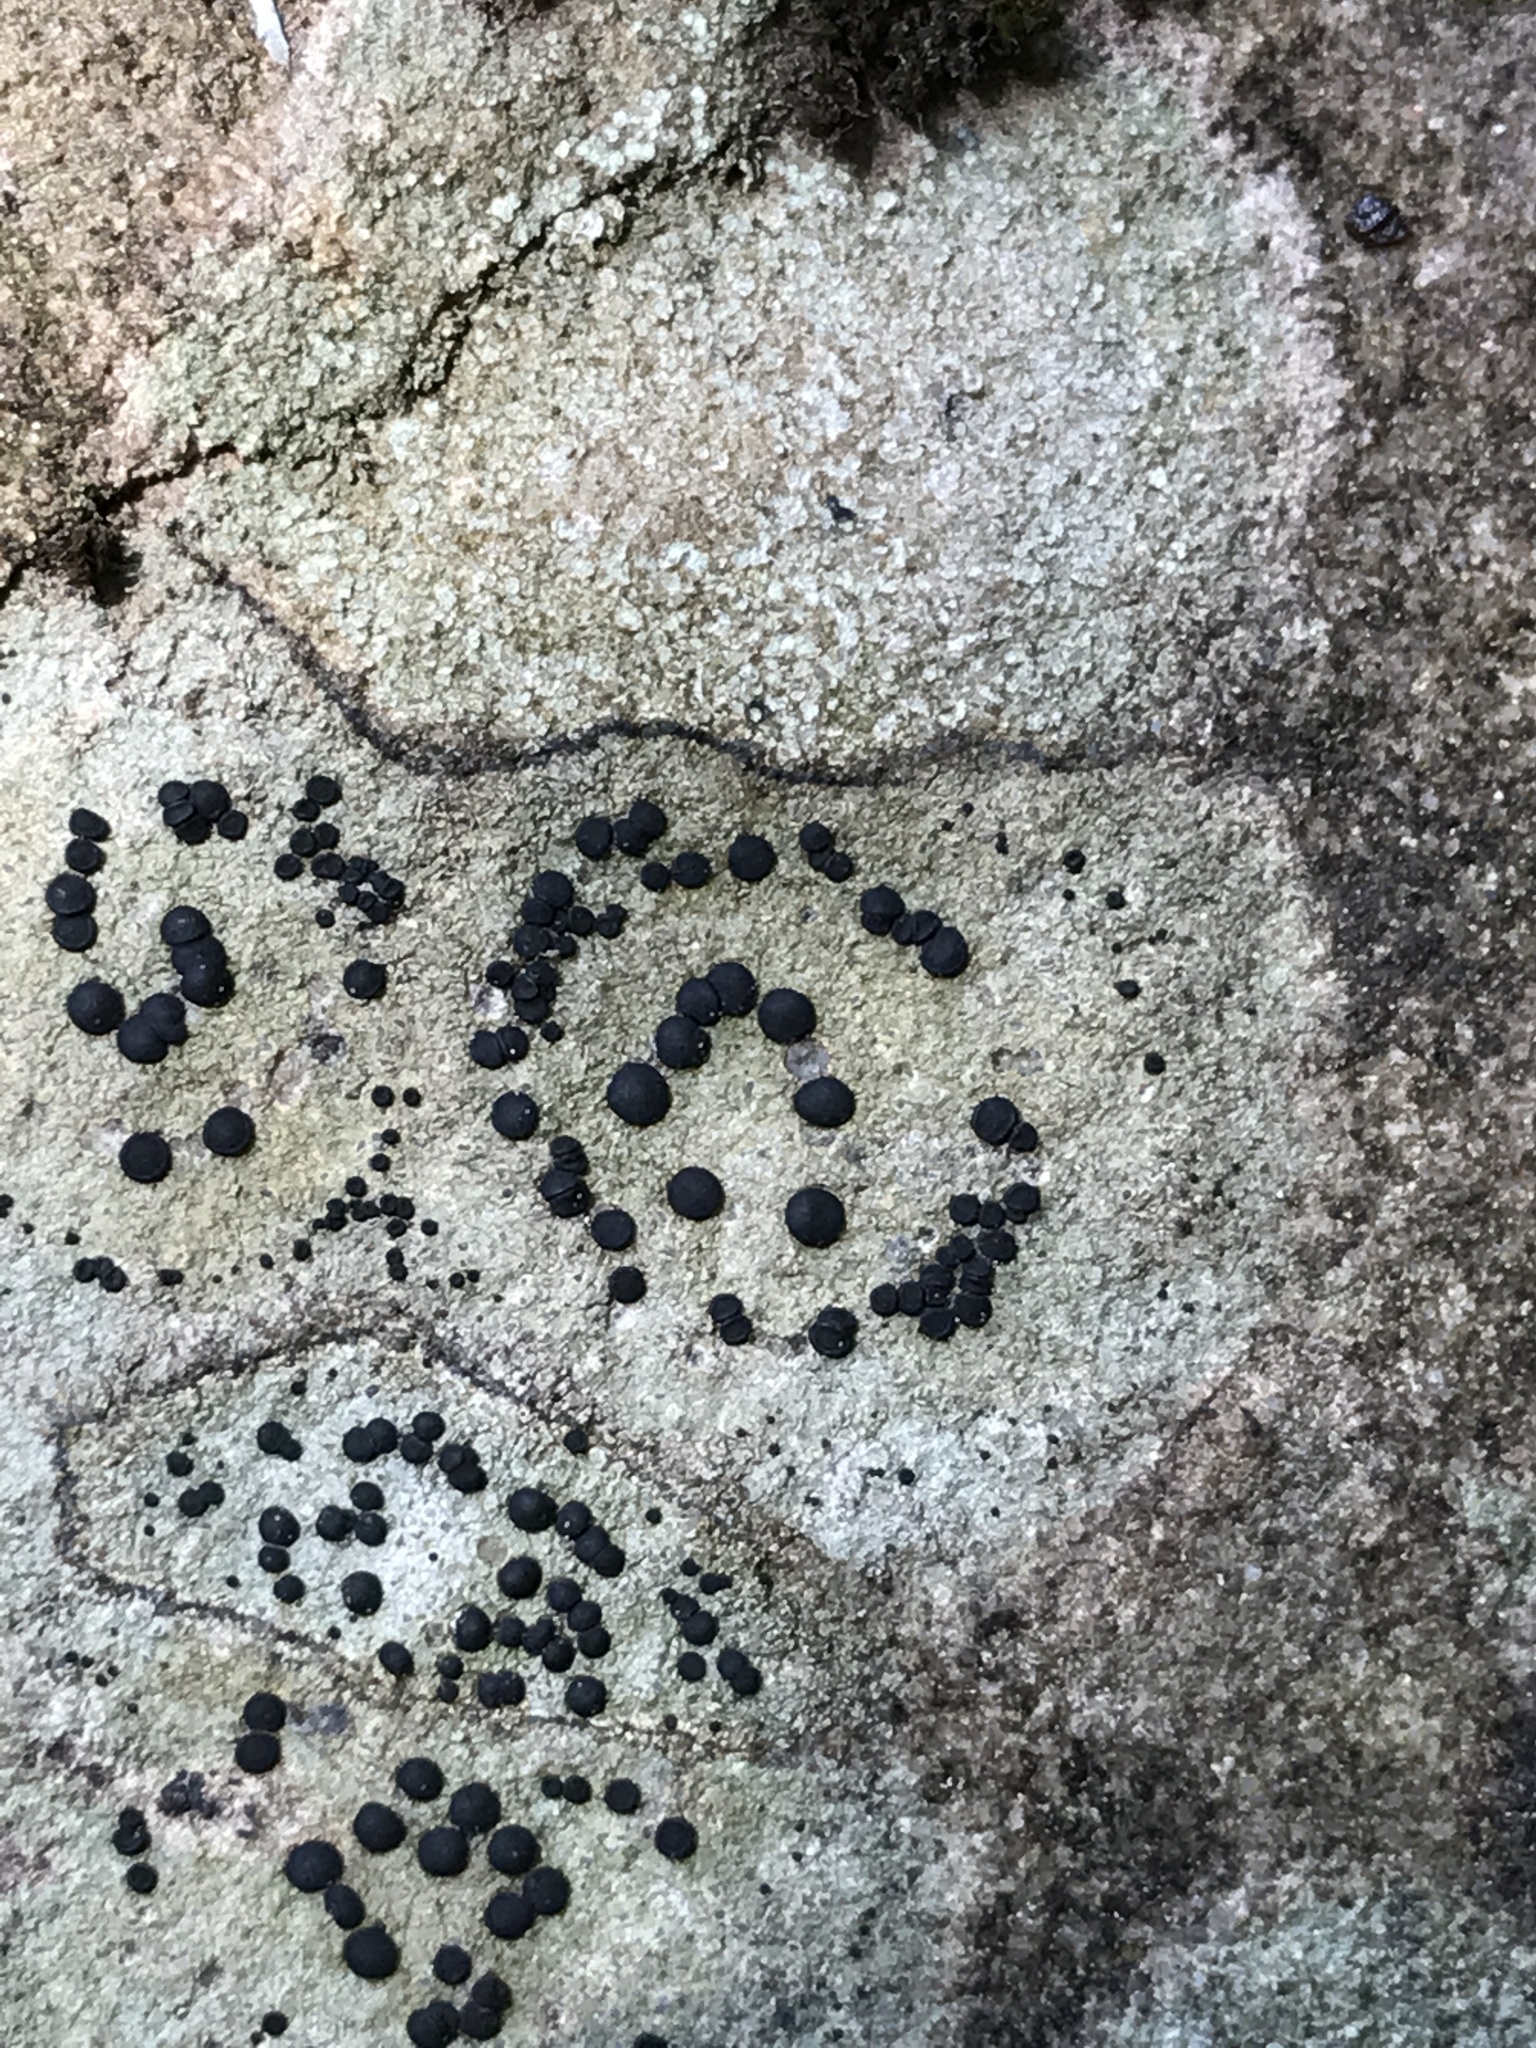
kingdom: Fungi
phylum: Ascomycota
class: Lecanoromycetes
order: Lecideales
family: Lecideaceae
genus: Porpidia
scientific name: Porpidia crustulata
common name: Concentric boulder lichen
